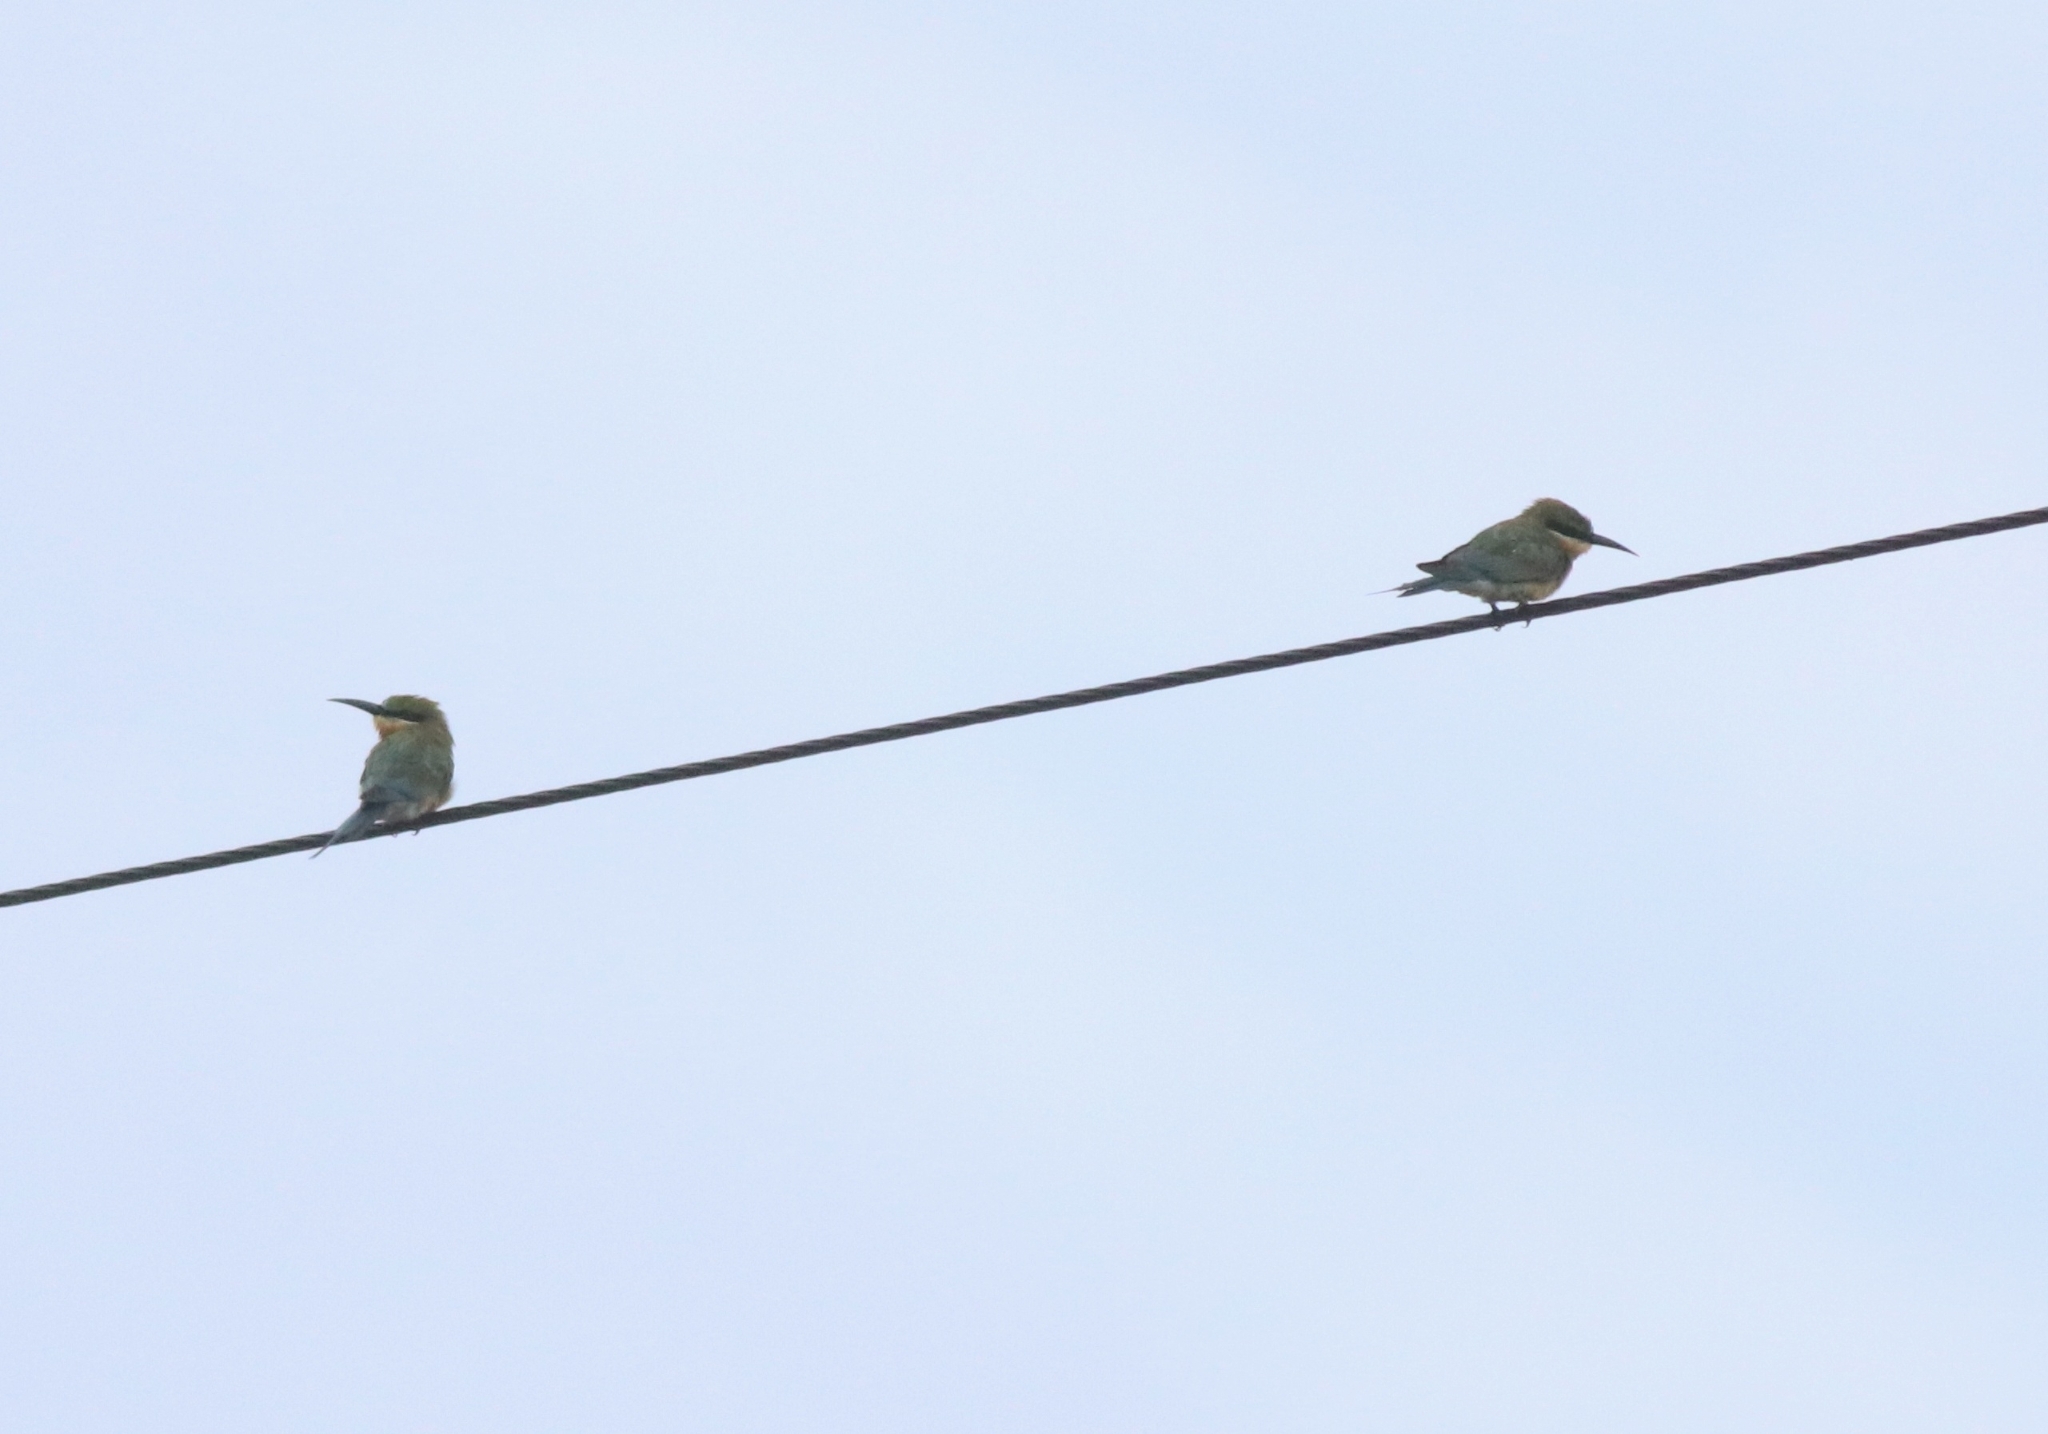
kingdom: Animalia
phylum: Chordata
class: Aves
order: Coraciiformes
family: Meropidae
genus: Merops
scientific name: Merops philippinus
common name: Blue-tailed bee-eater
